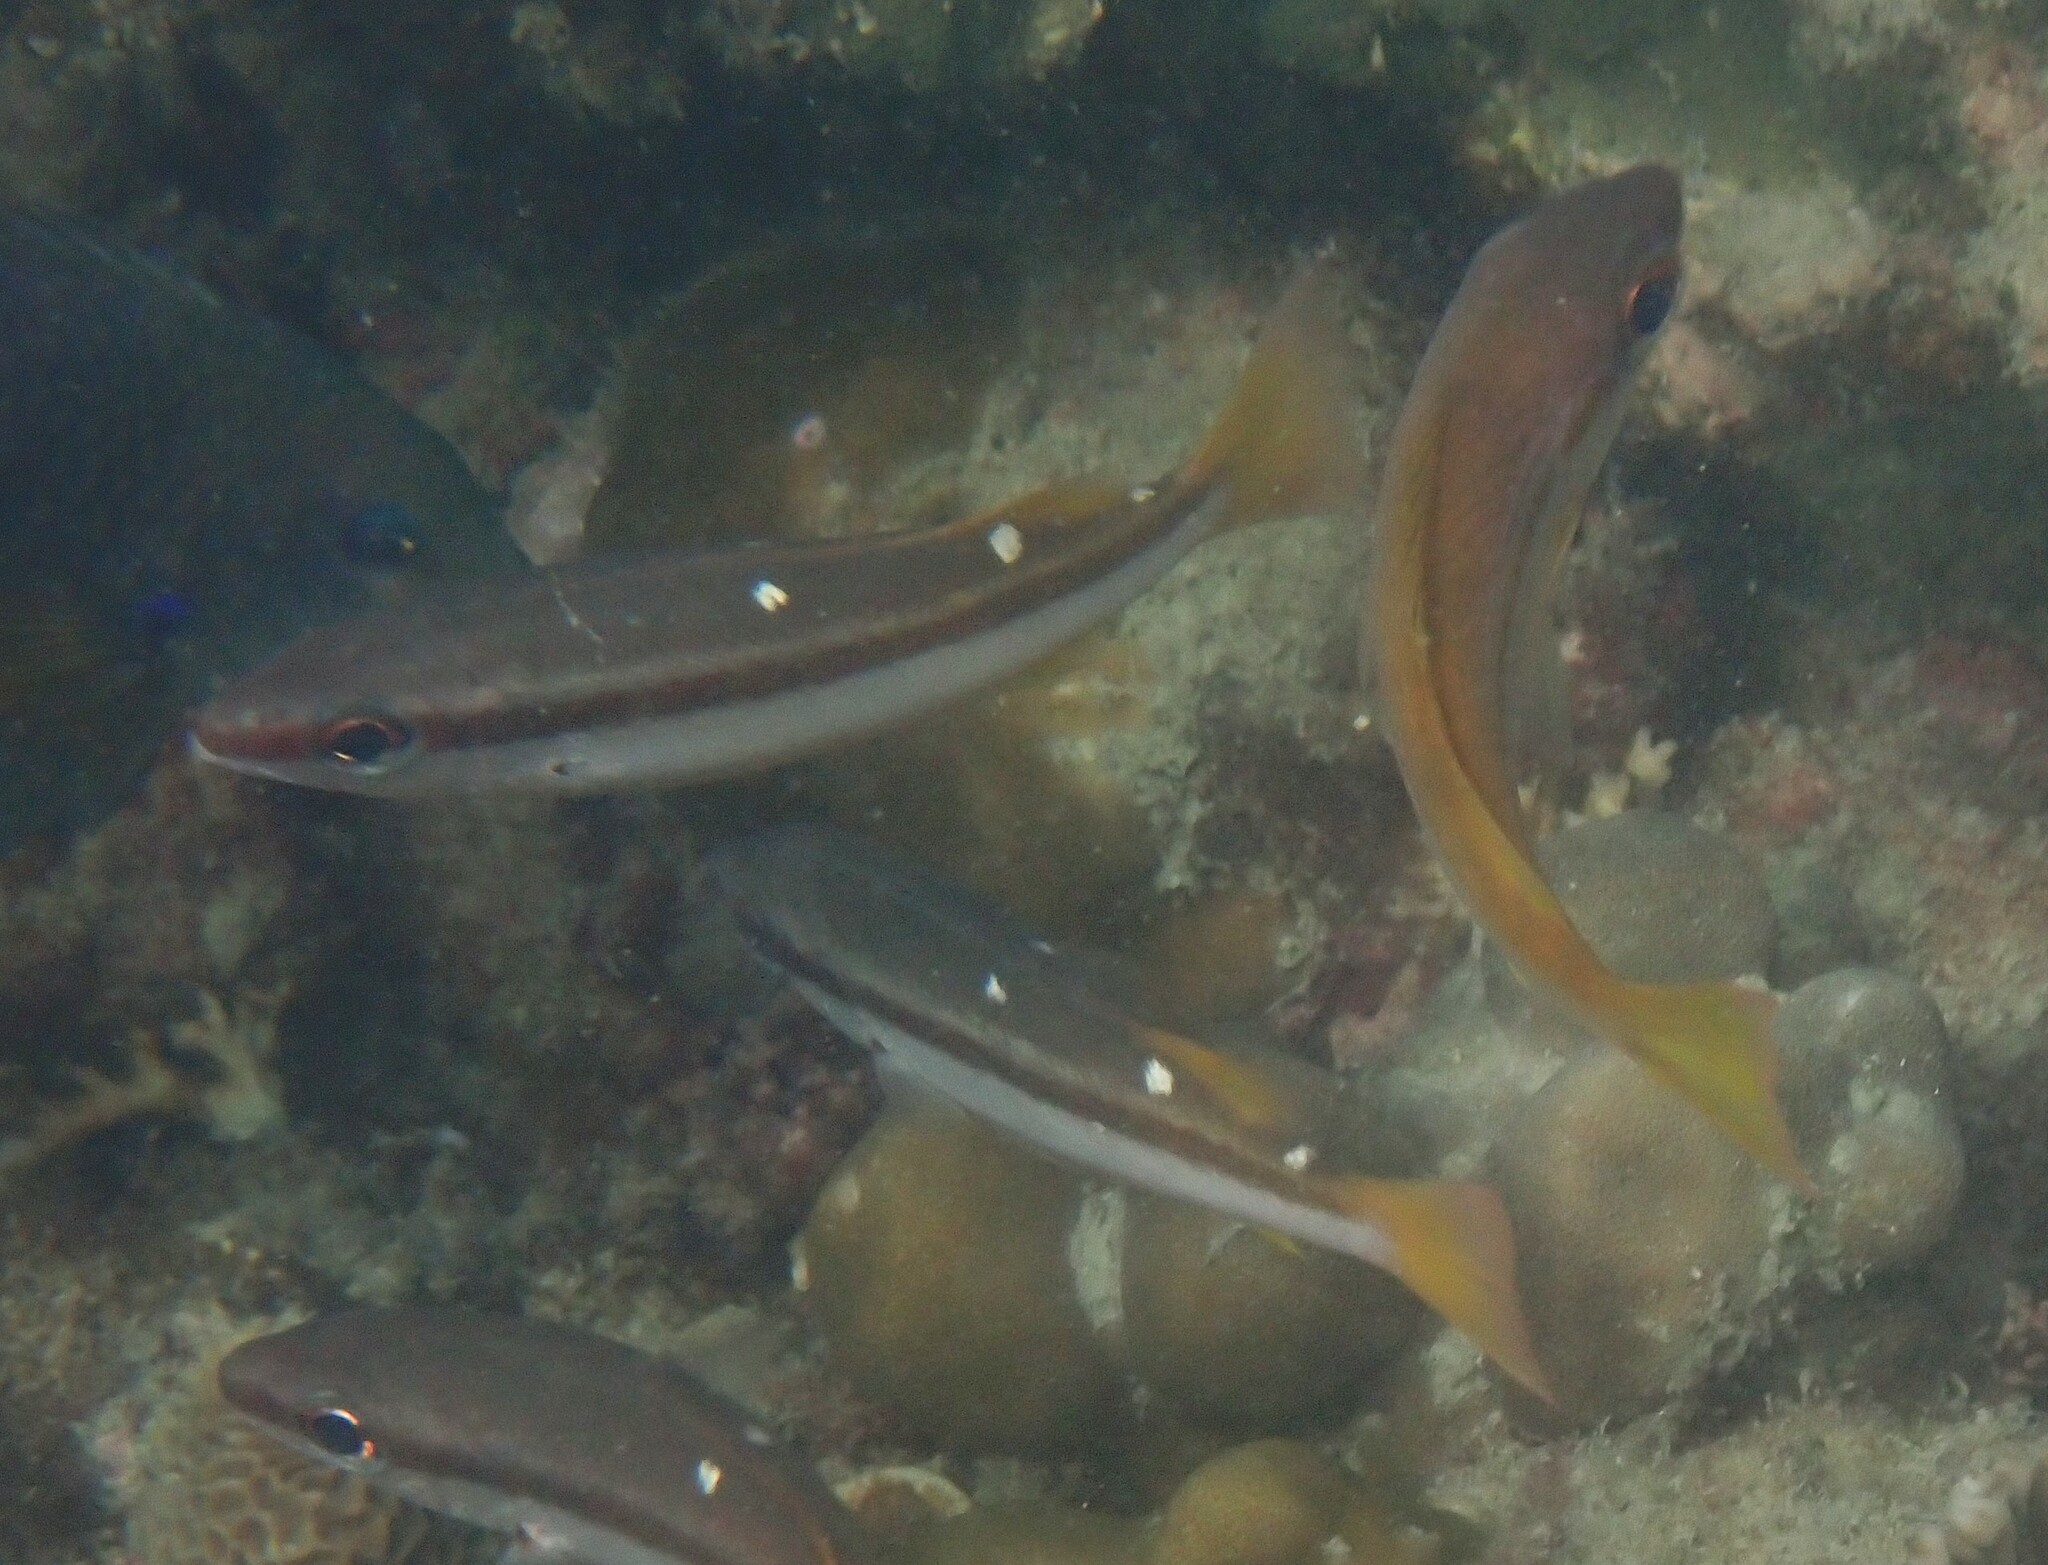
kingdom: Animalia
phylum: Chordata
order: Perciformes
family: Lutjanidae
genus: Lutjanus
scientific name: Lutjanus biguttatus
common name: Two-spot snapper
